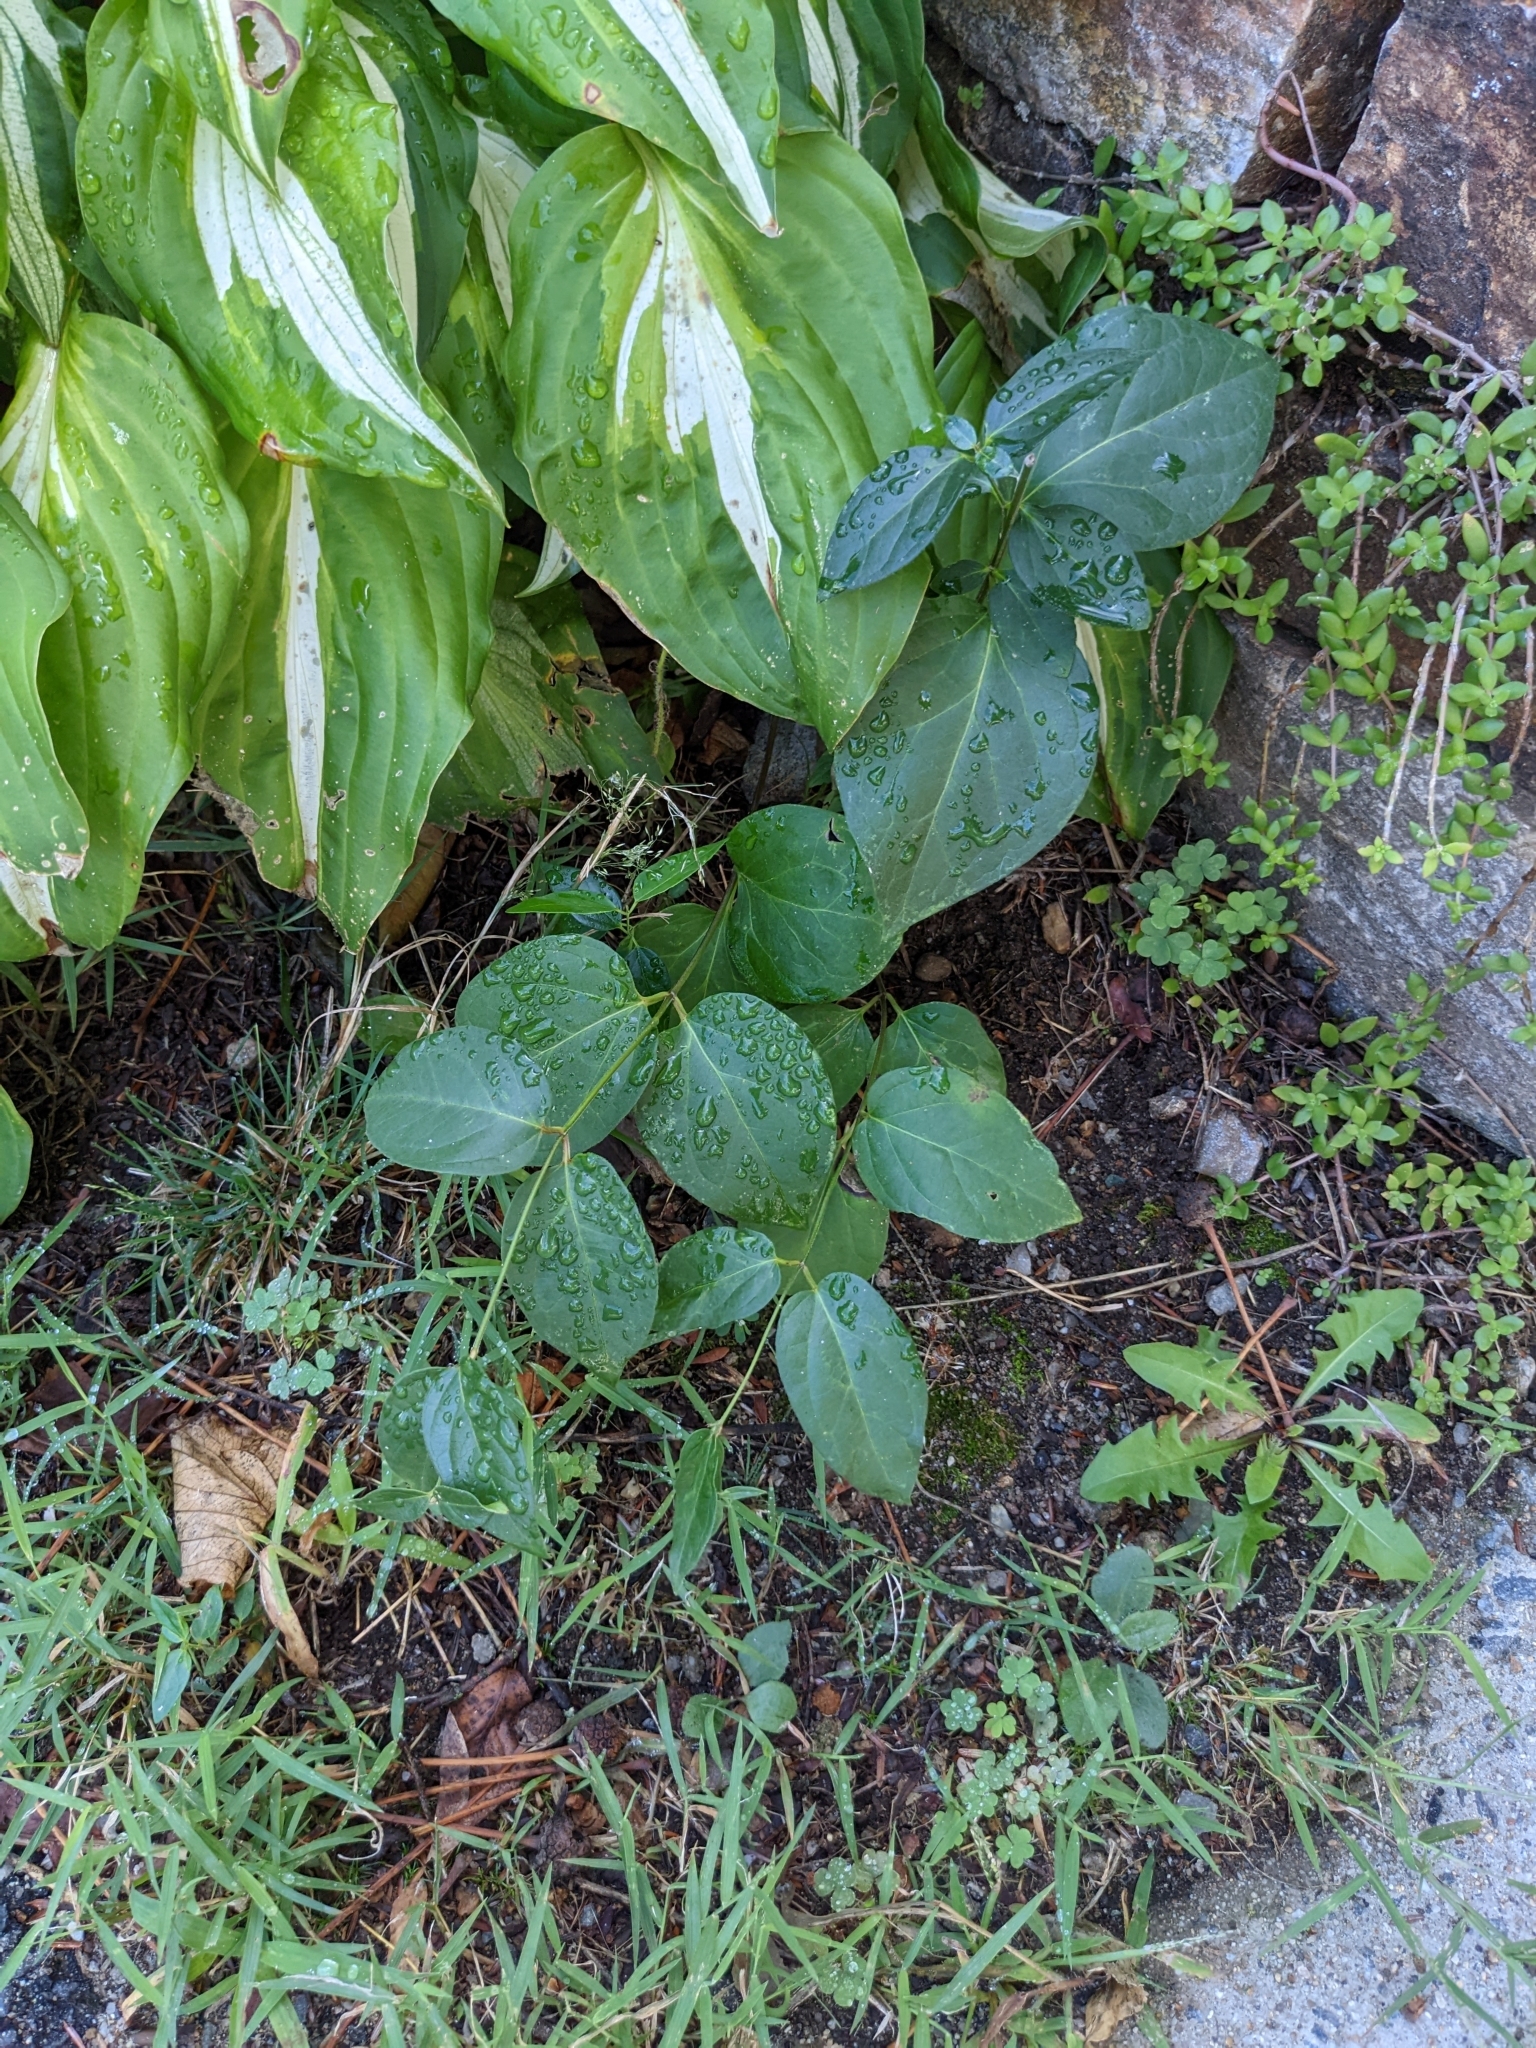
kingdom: Plantae
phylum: Tracheophyta
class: Magnoliopsida
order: Gentianales
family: Apocynaceae
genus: Vincetoxicum
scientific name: Vincetoxicum nigrum
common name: Black swallow-wort
